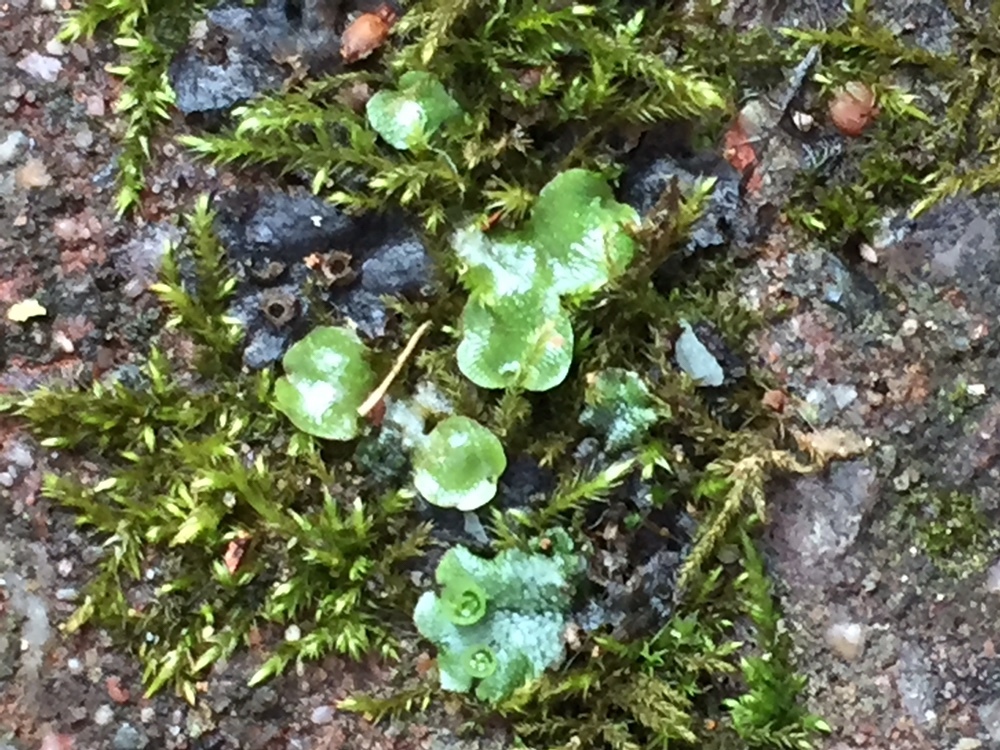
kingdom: Plantae
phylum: Marchantiophyta
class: Marchantiopsida
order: Lunulariales
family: Lunulariaceae
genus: Lunularia
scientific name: Lunularia cruciata
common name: Crescent-cup liverwort
